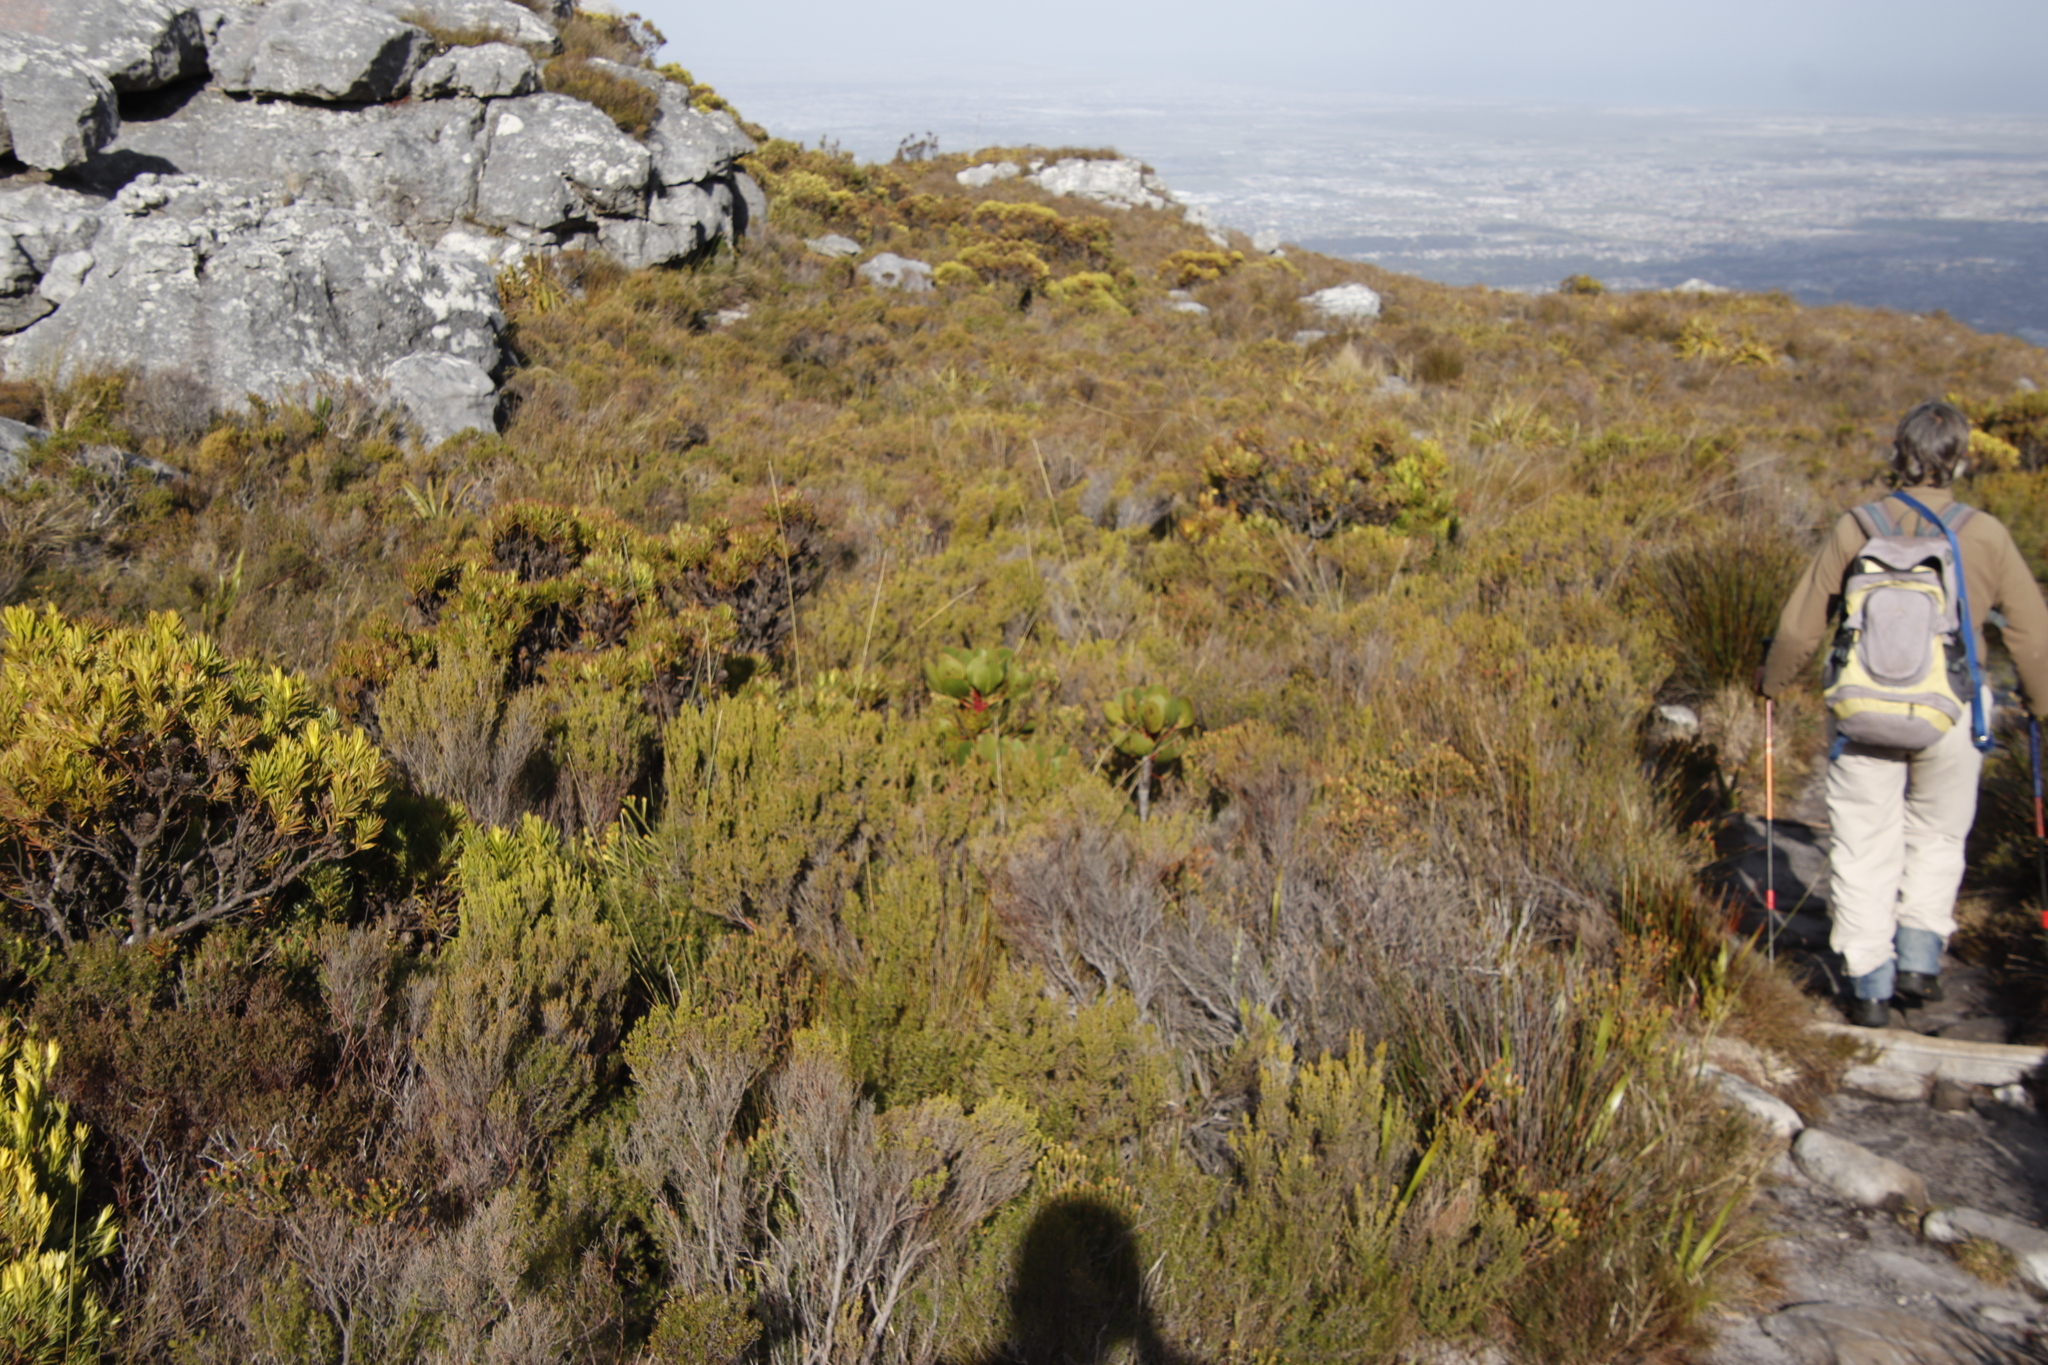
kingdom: Plantae
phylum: Tracheophyta
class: Magnoliopsida
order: Proteales
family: Proteaceae
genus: Protea
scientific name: Protea cynaroides
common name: King protea
